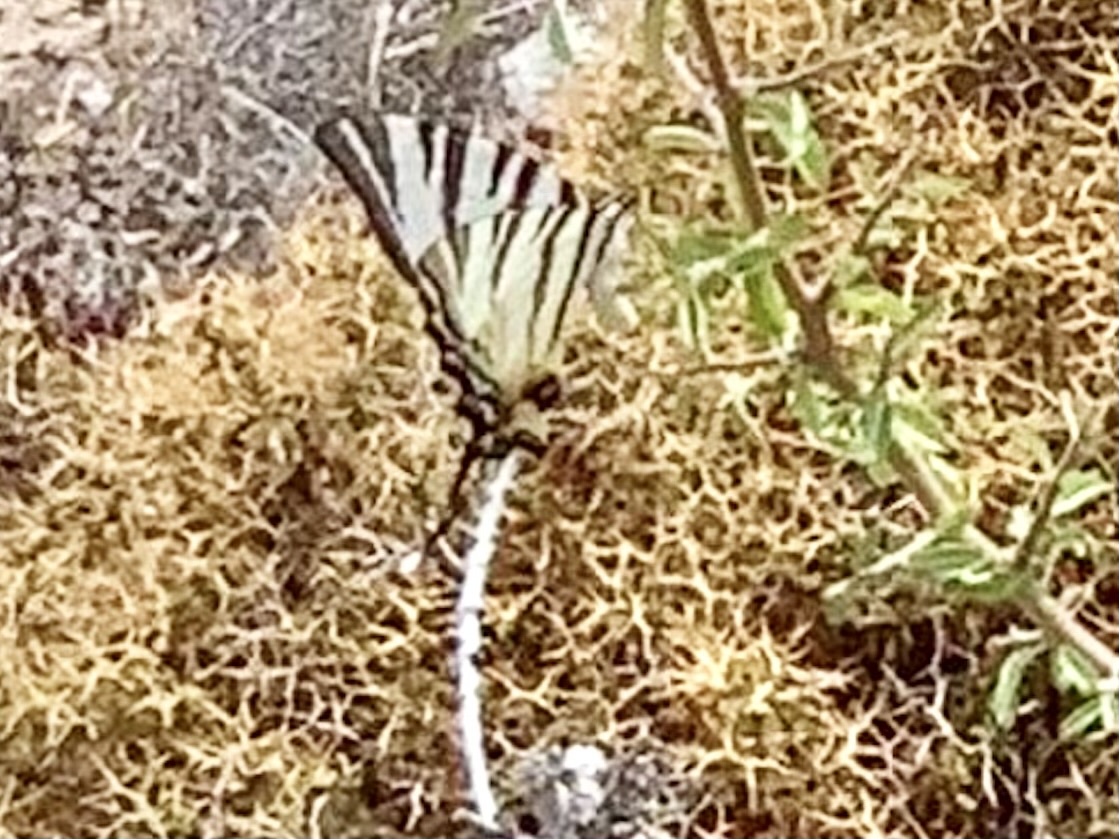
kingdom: Animalia
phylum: Arthropoda
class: Insecta
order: Lepidoptera
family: Papilionidae
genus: Iphiclides
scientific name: Iphiclides podalirius
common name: Scarce swallowtail
